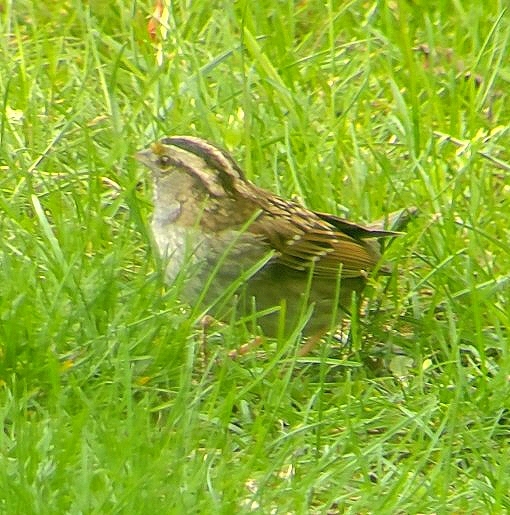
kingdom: Animalia
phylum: Chordata
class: Aves
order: Passeriformes
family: Passerellidae
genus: Zonotrichia
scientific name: Zonotrichia albicollis
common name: White-throated sparrow
